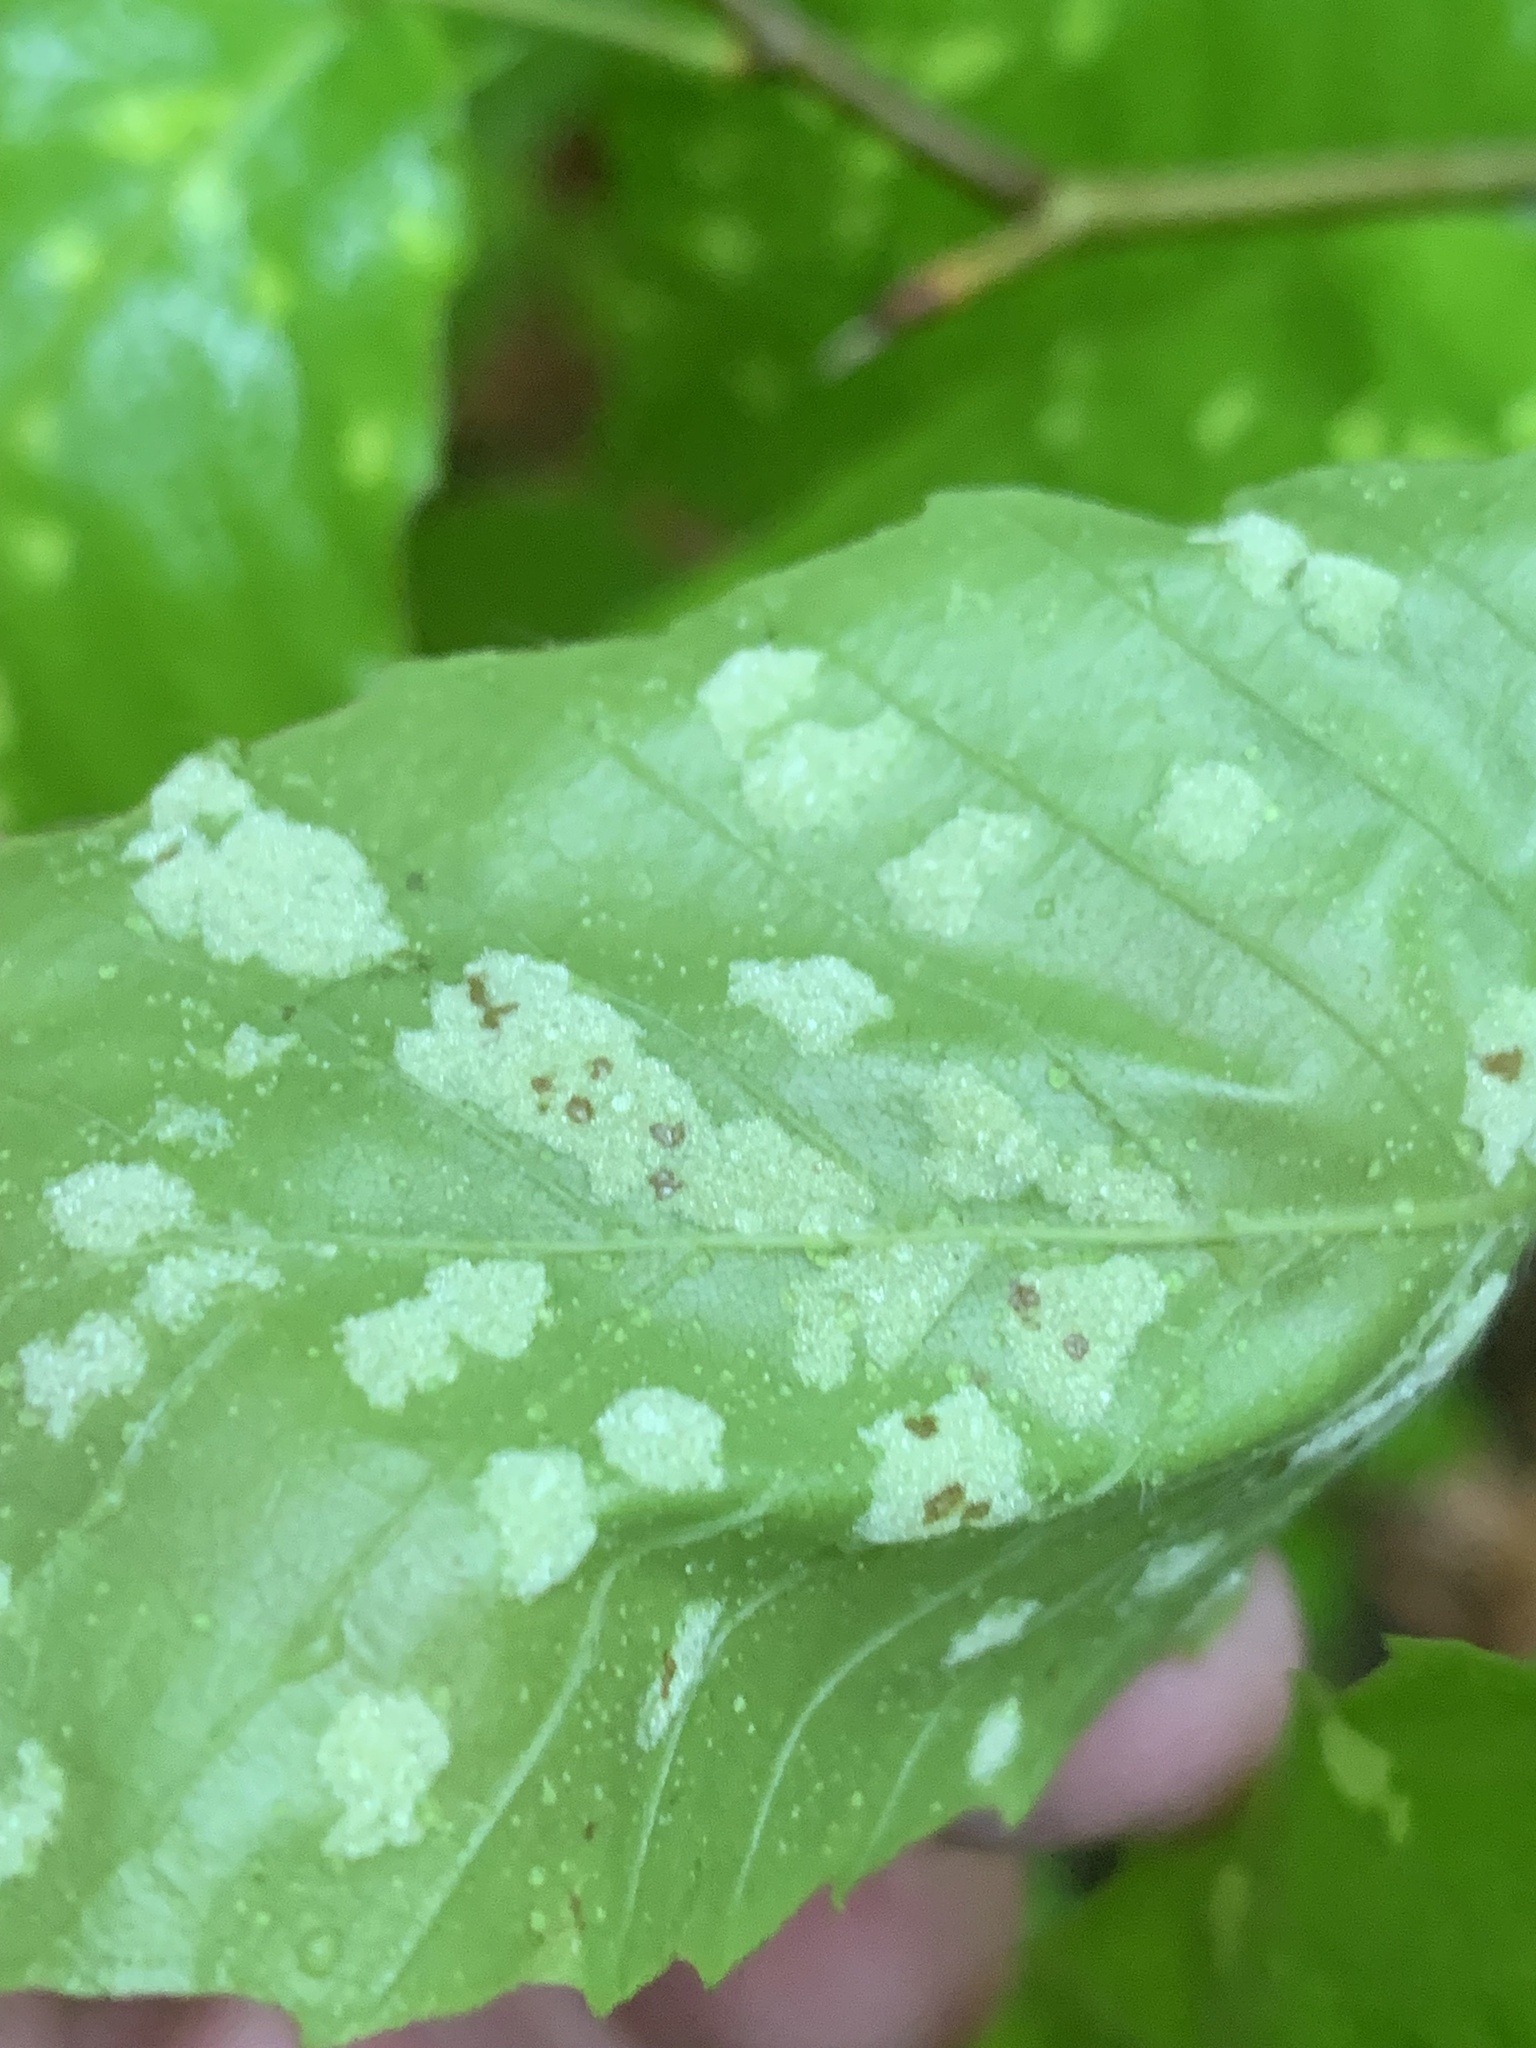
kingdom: Animalia
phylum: Arthropoda
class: Arachnida
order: Trombidiformes
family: Eriophyidae
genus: Acalitus
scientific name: Acalitus
